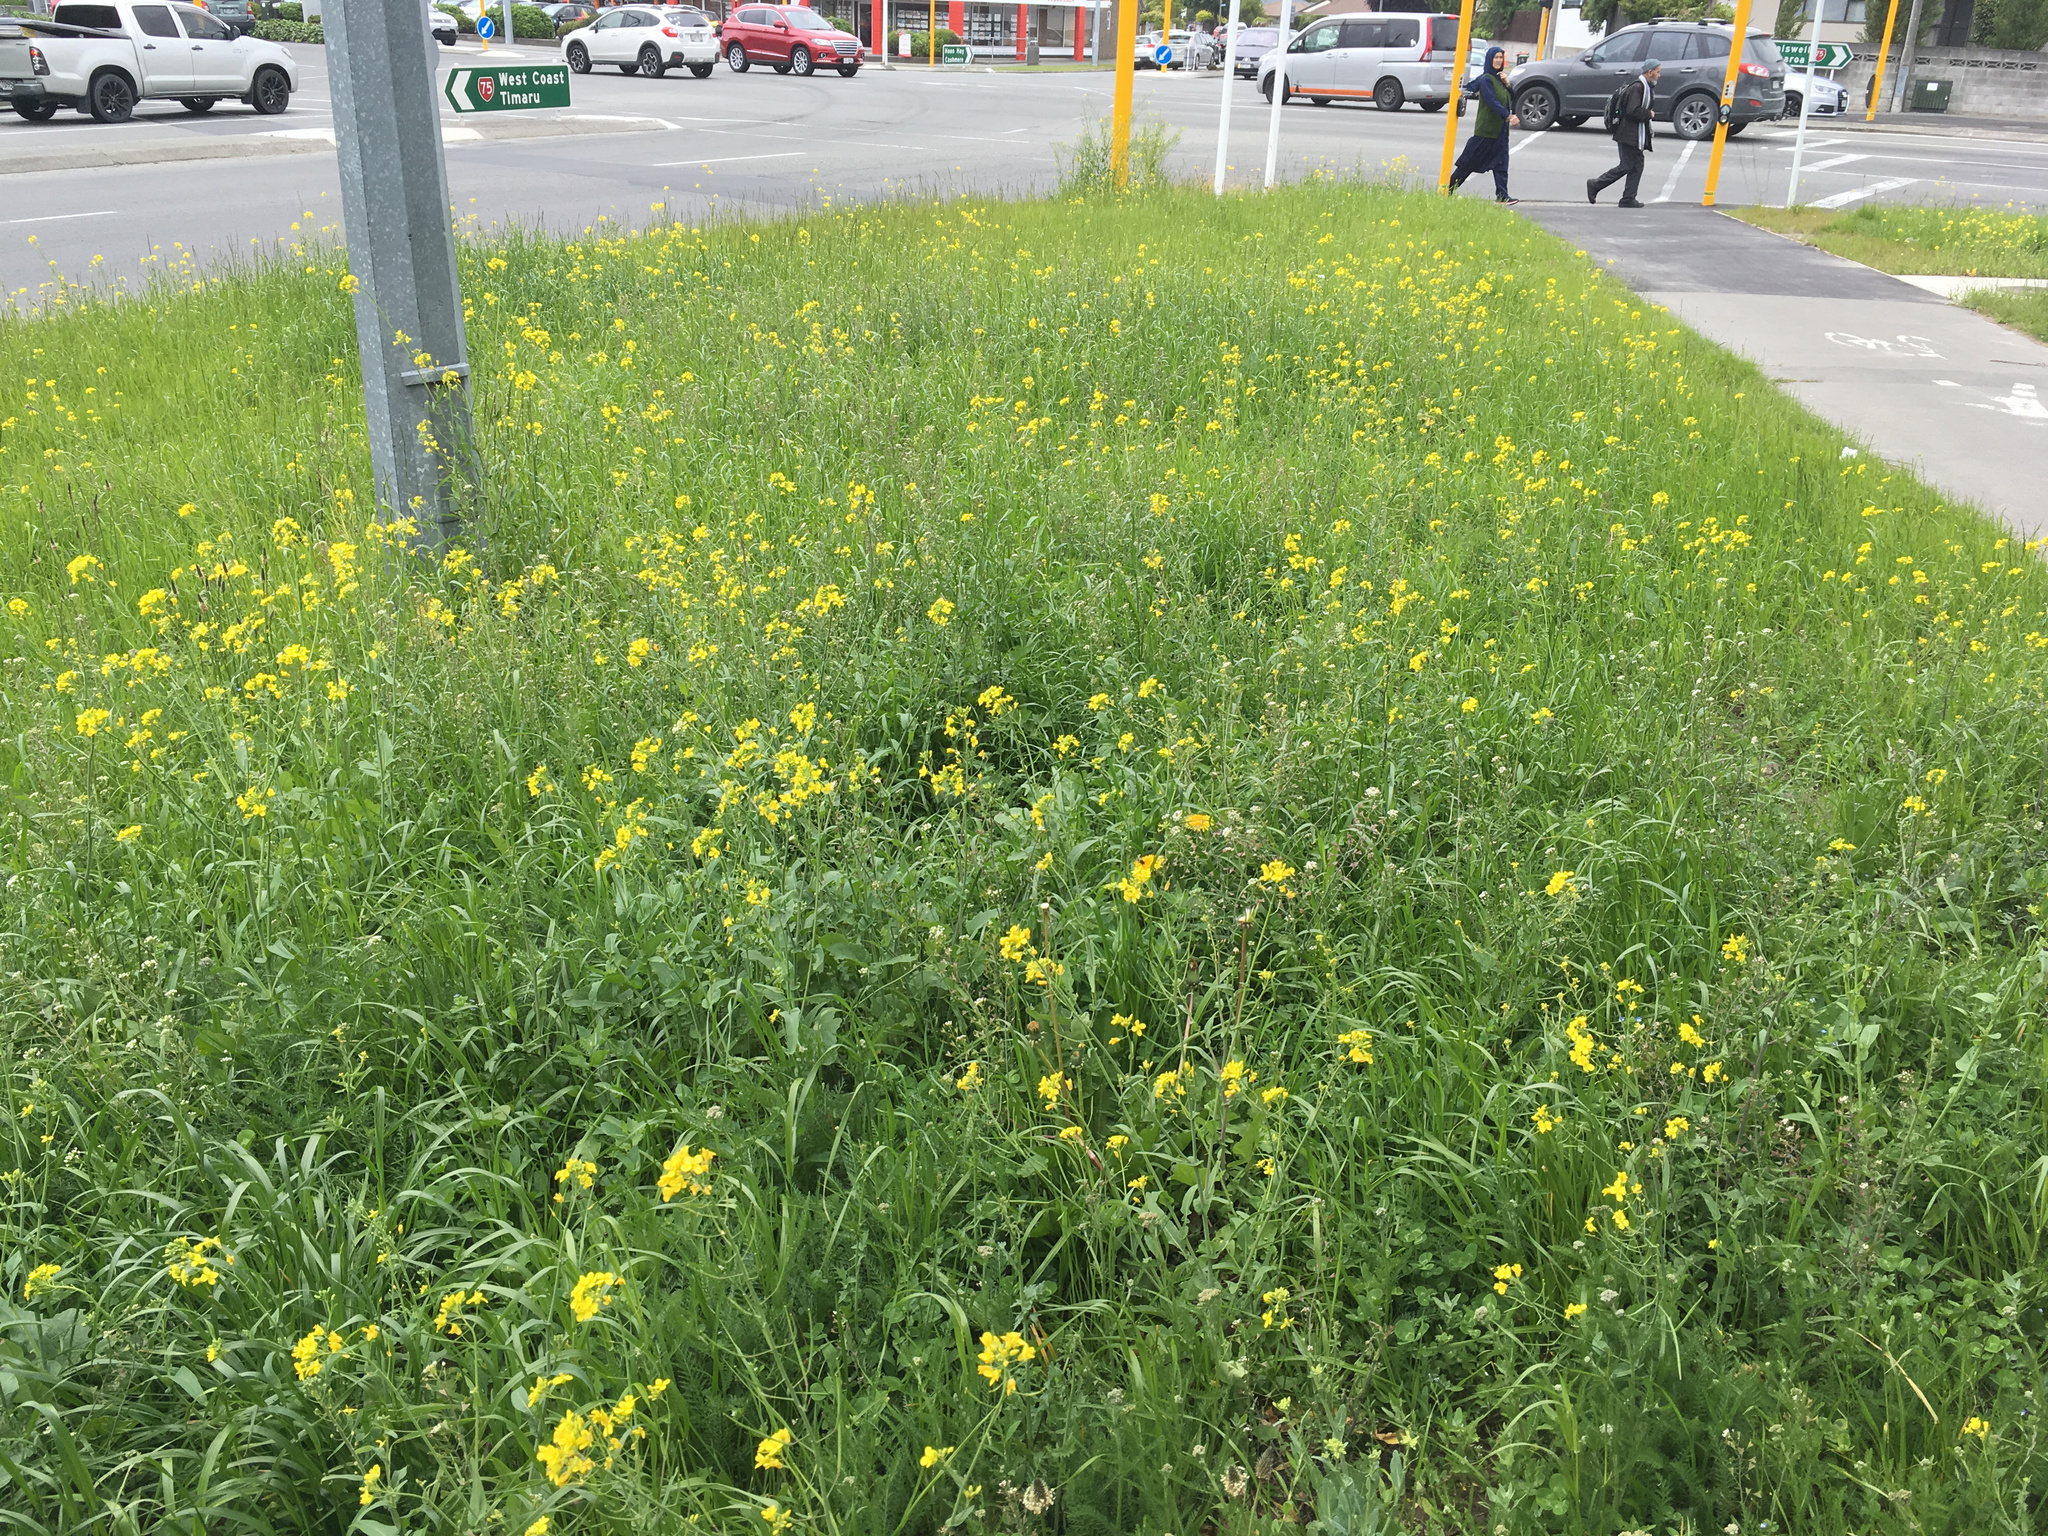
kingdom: Plantae
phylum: Tracheophyta
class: Magnoliopsida
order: Brassicales
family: Brassicaceae
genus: Brassica
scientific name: Brassica rapa
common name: Field mustard
